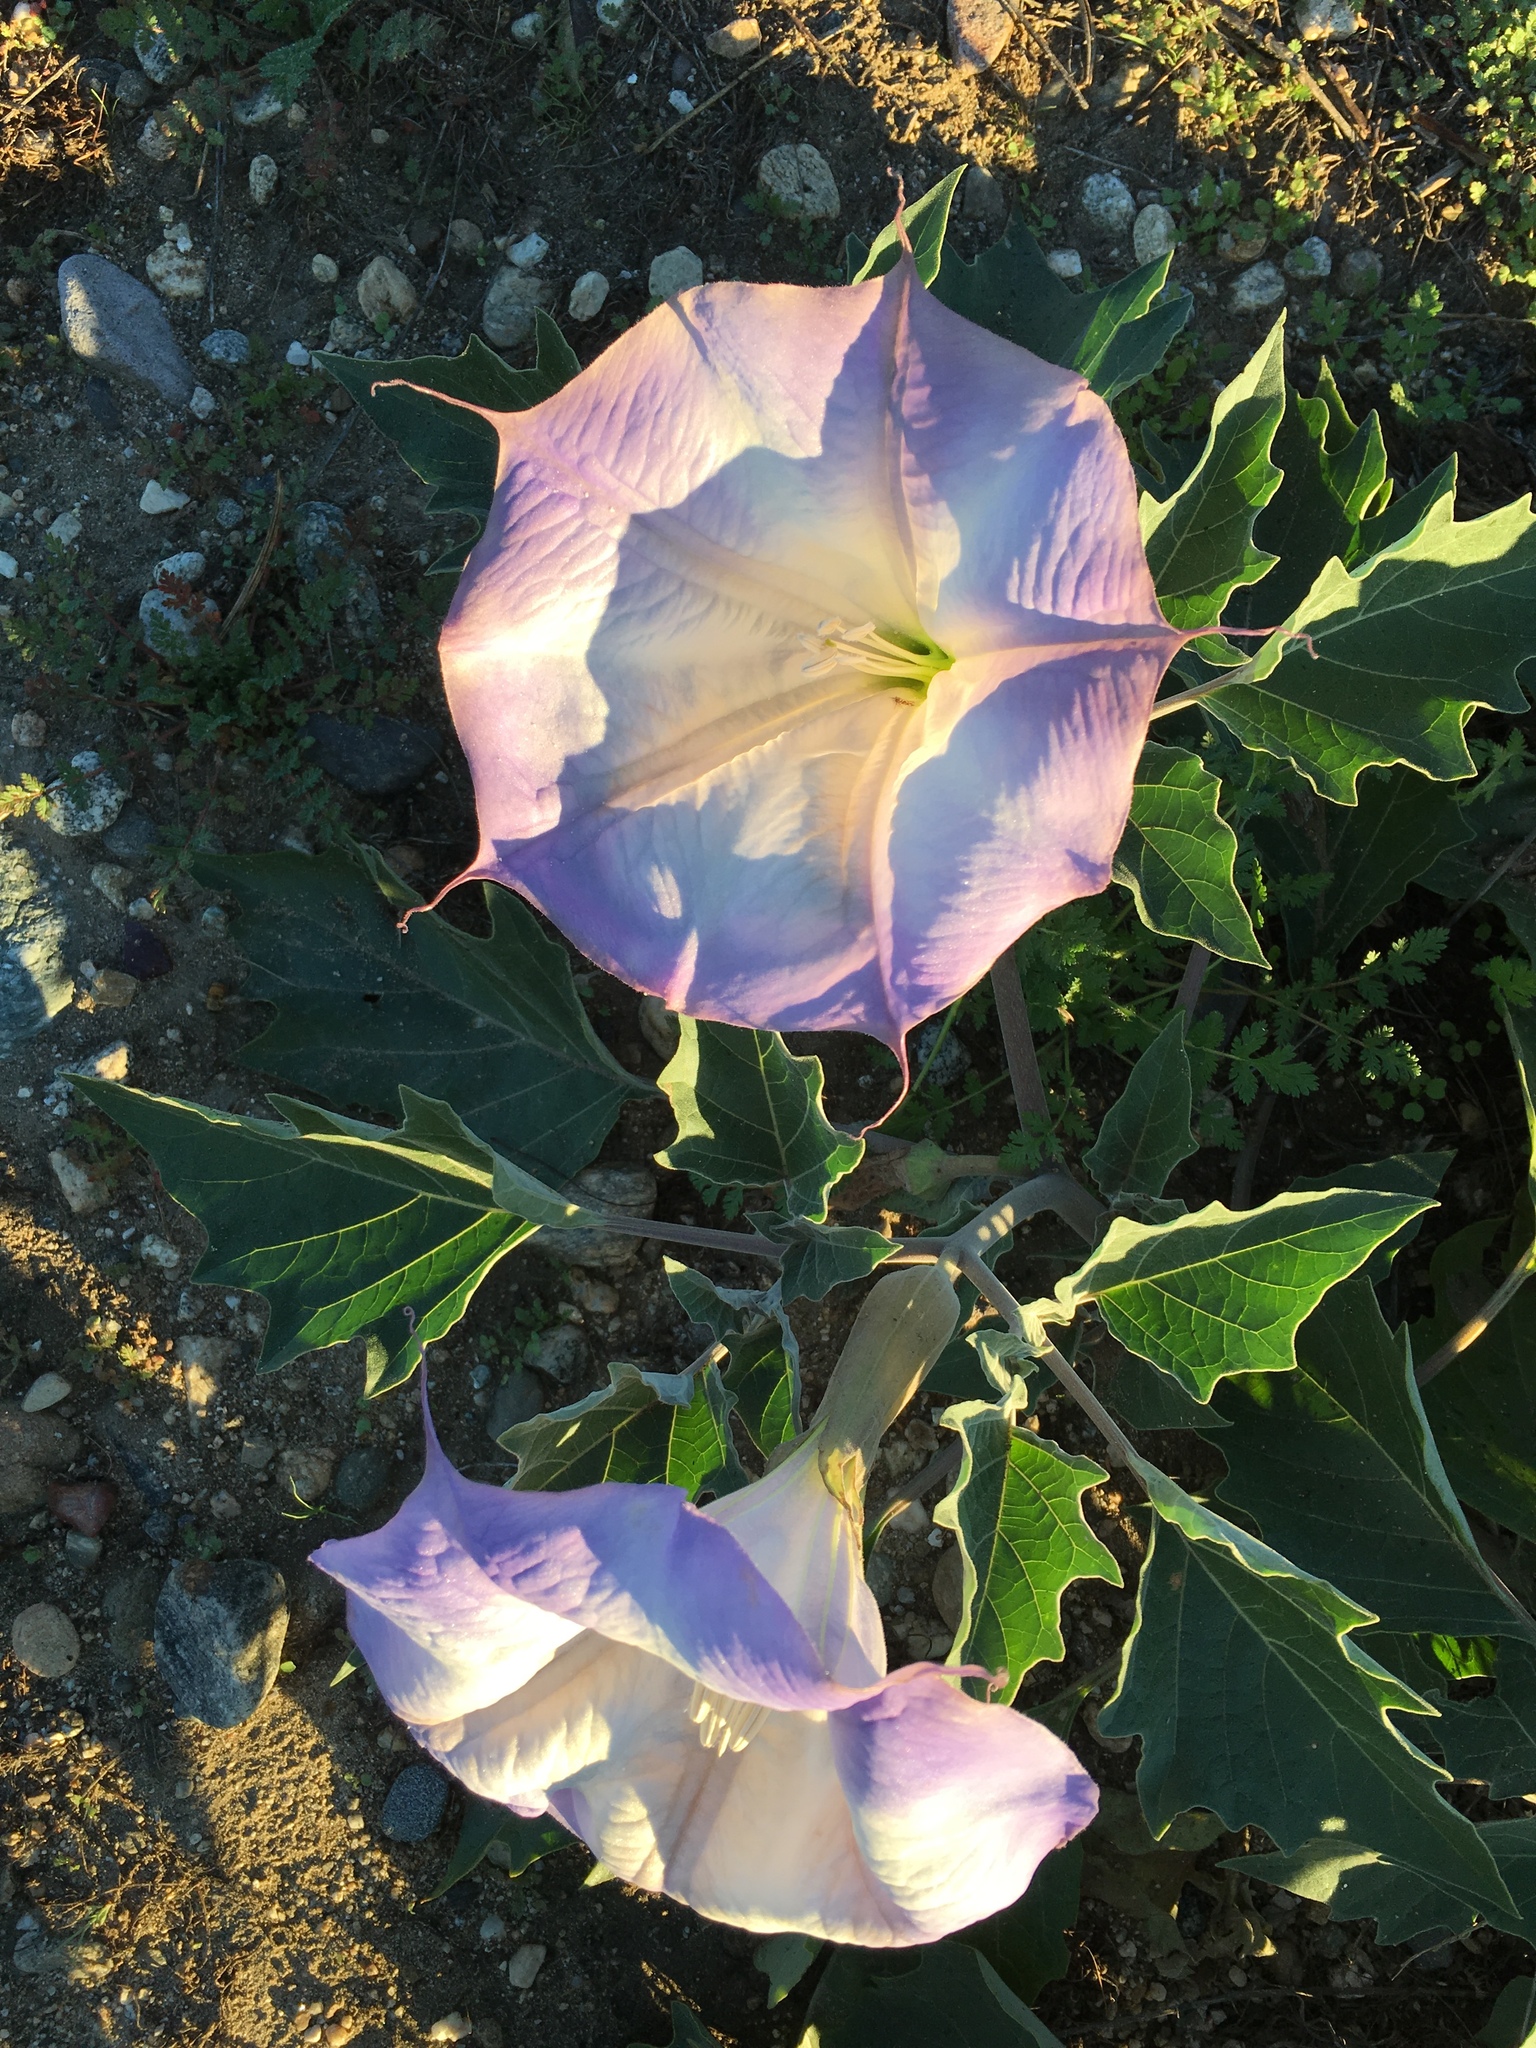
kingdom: Plantae
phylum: Tracheophyta
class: Magnoliopsida
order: Solanales
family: Solanaceae
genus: Datura
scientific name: Datura wrightii
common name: Sacred thorn-apple
